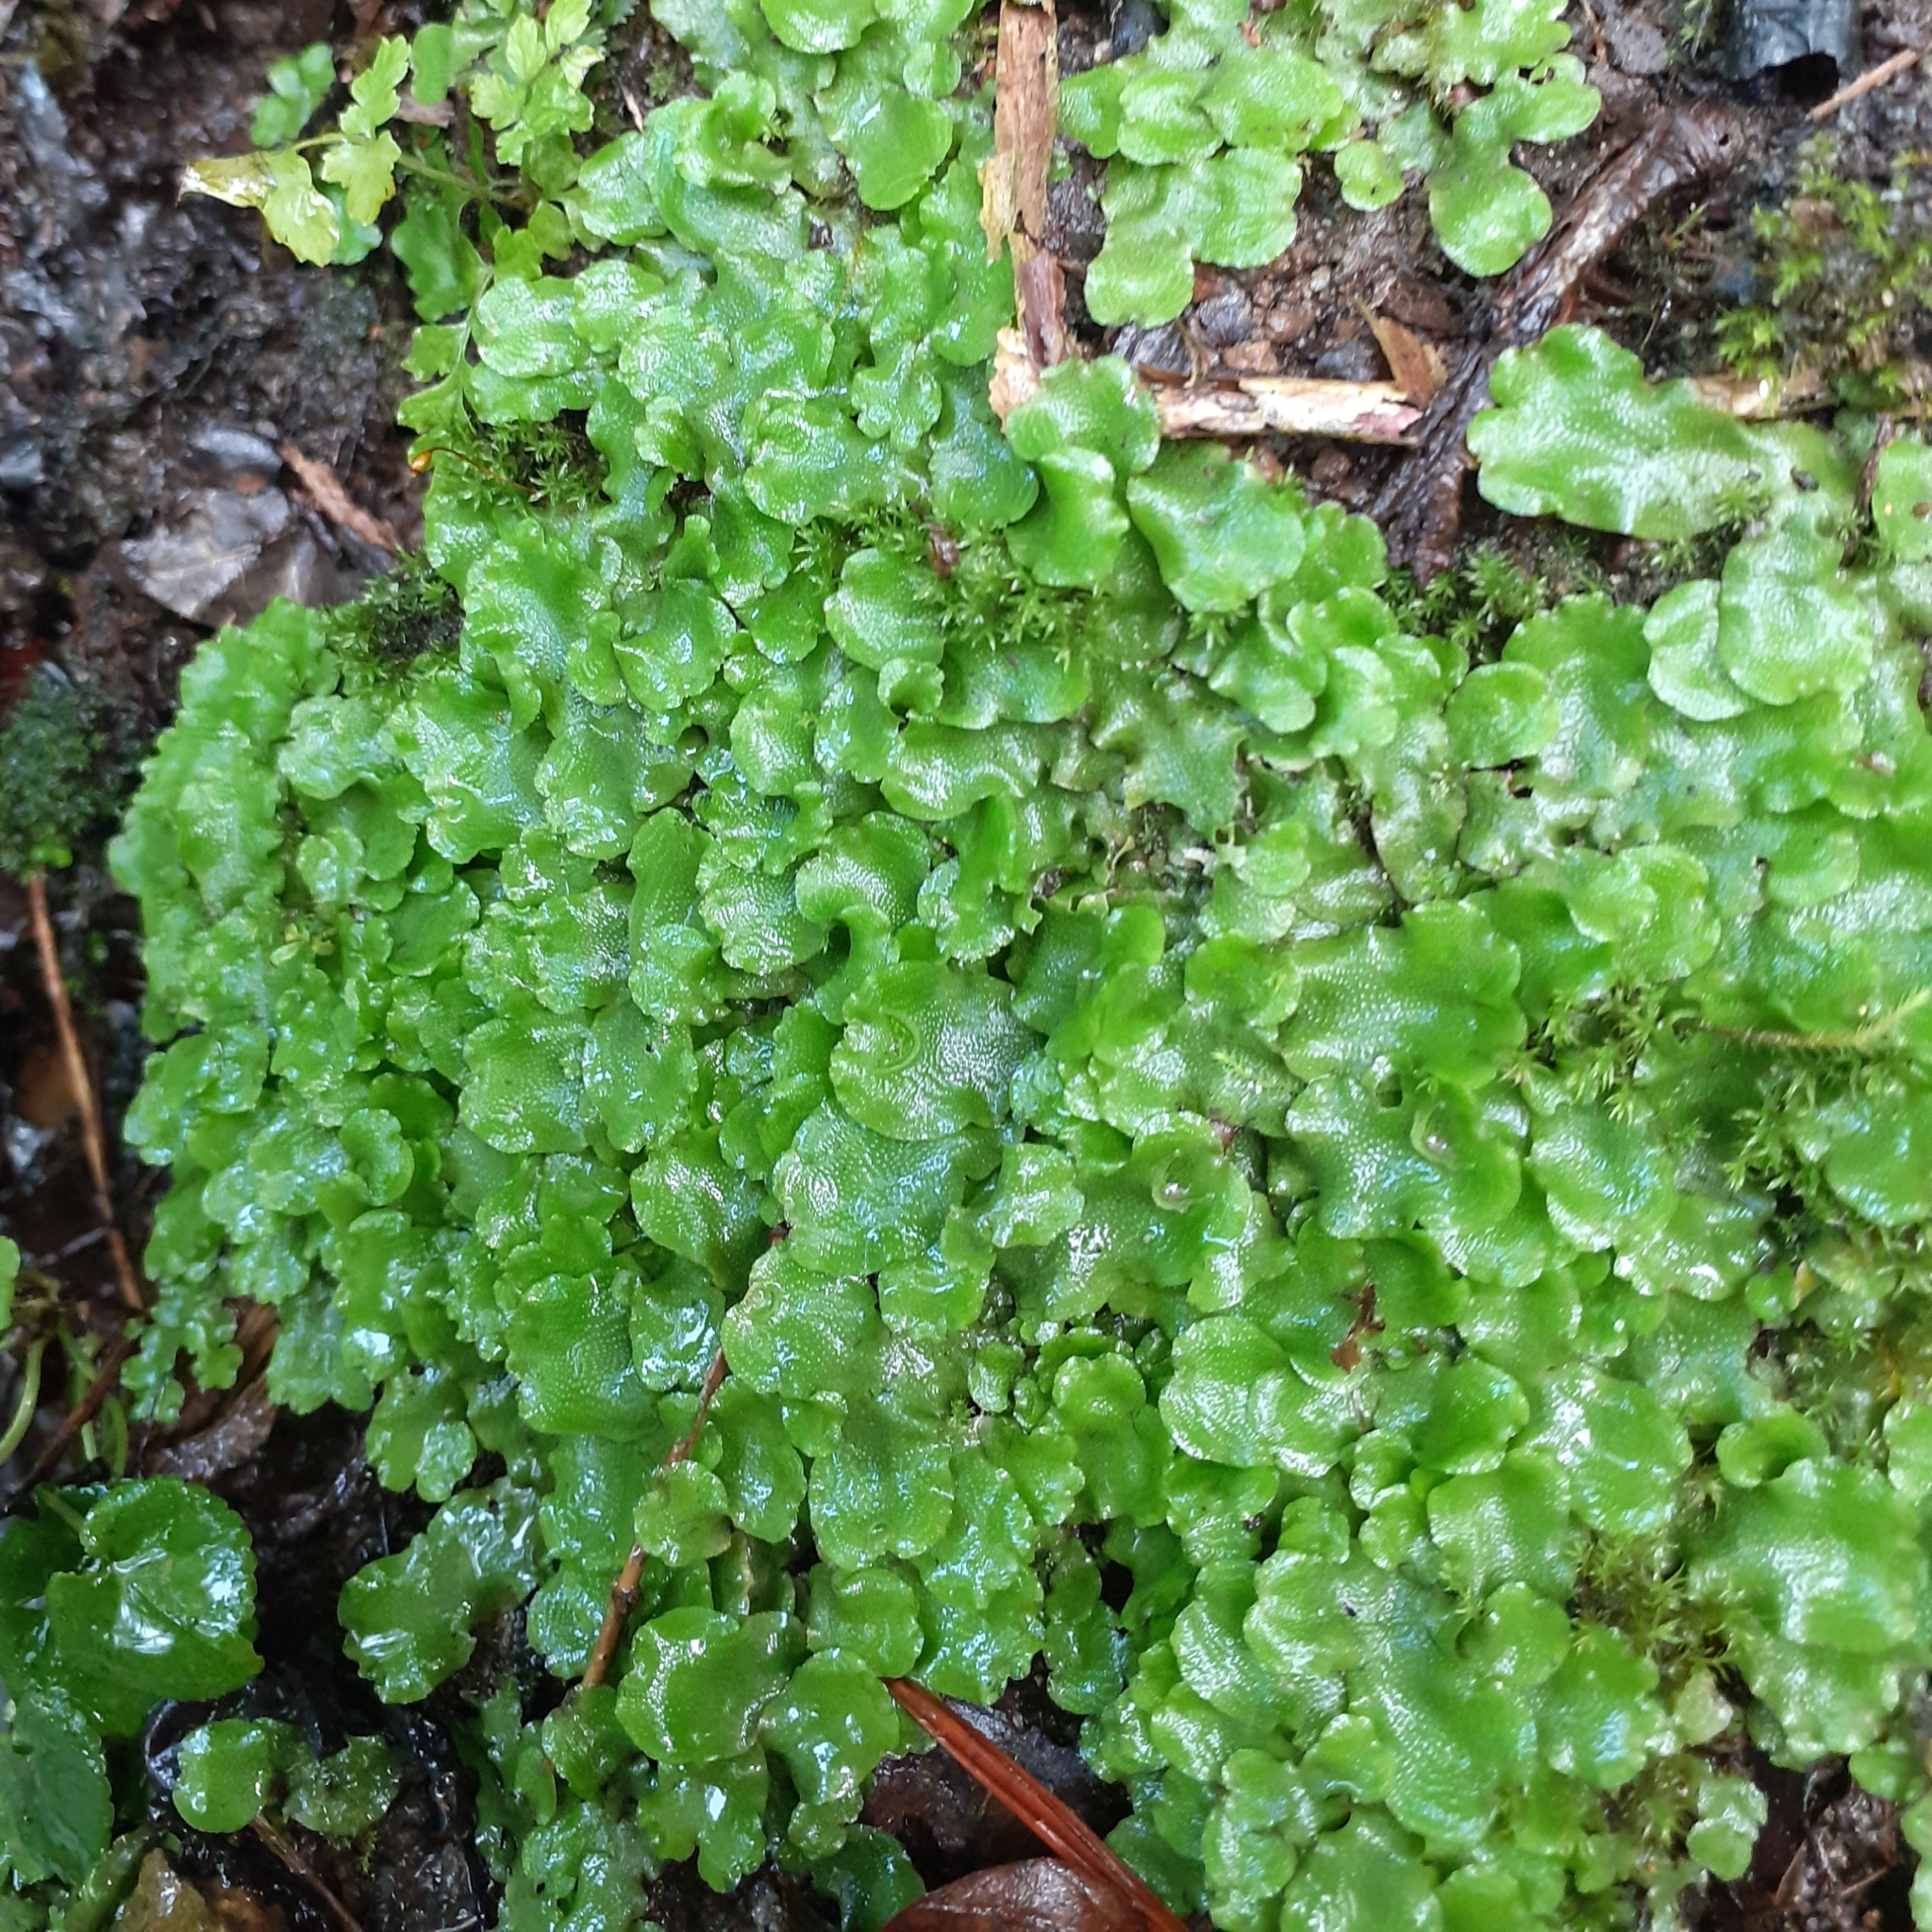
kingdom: Plantae
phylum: Marchantiophyta
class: Marchantiopsida
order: Lunulariales
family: Lunulariaceae
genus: Lunularia
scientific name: Lunularia cruciata
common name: Crescent-cup liverwort
